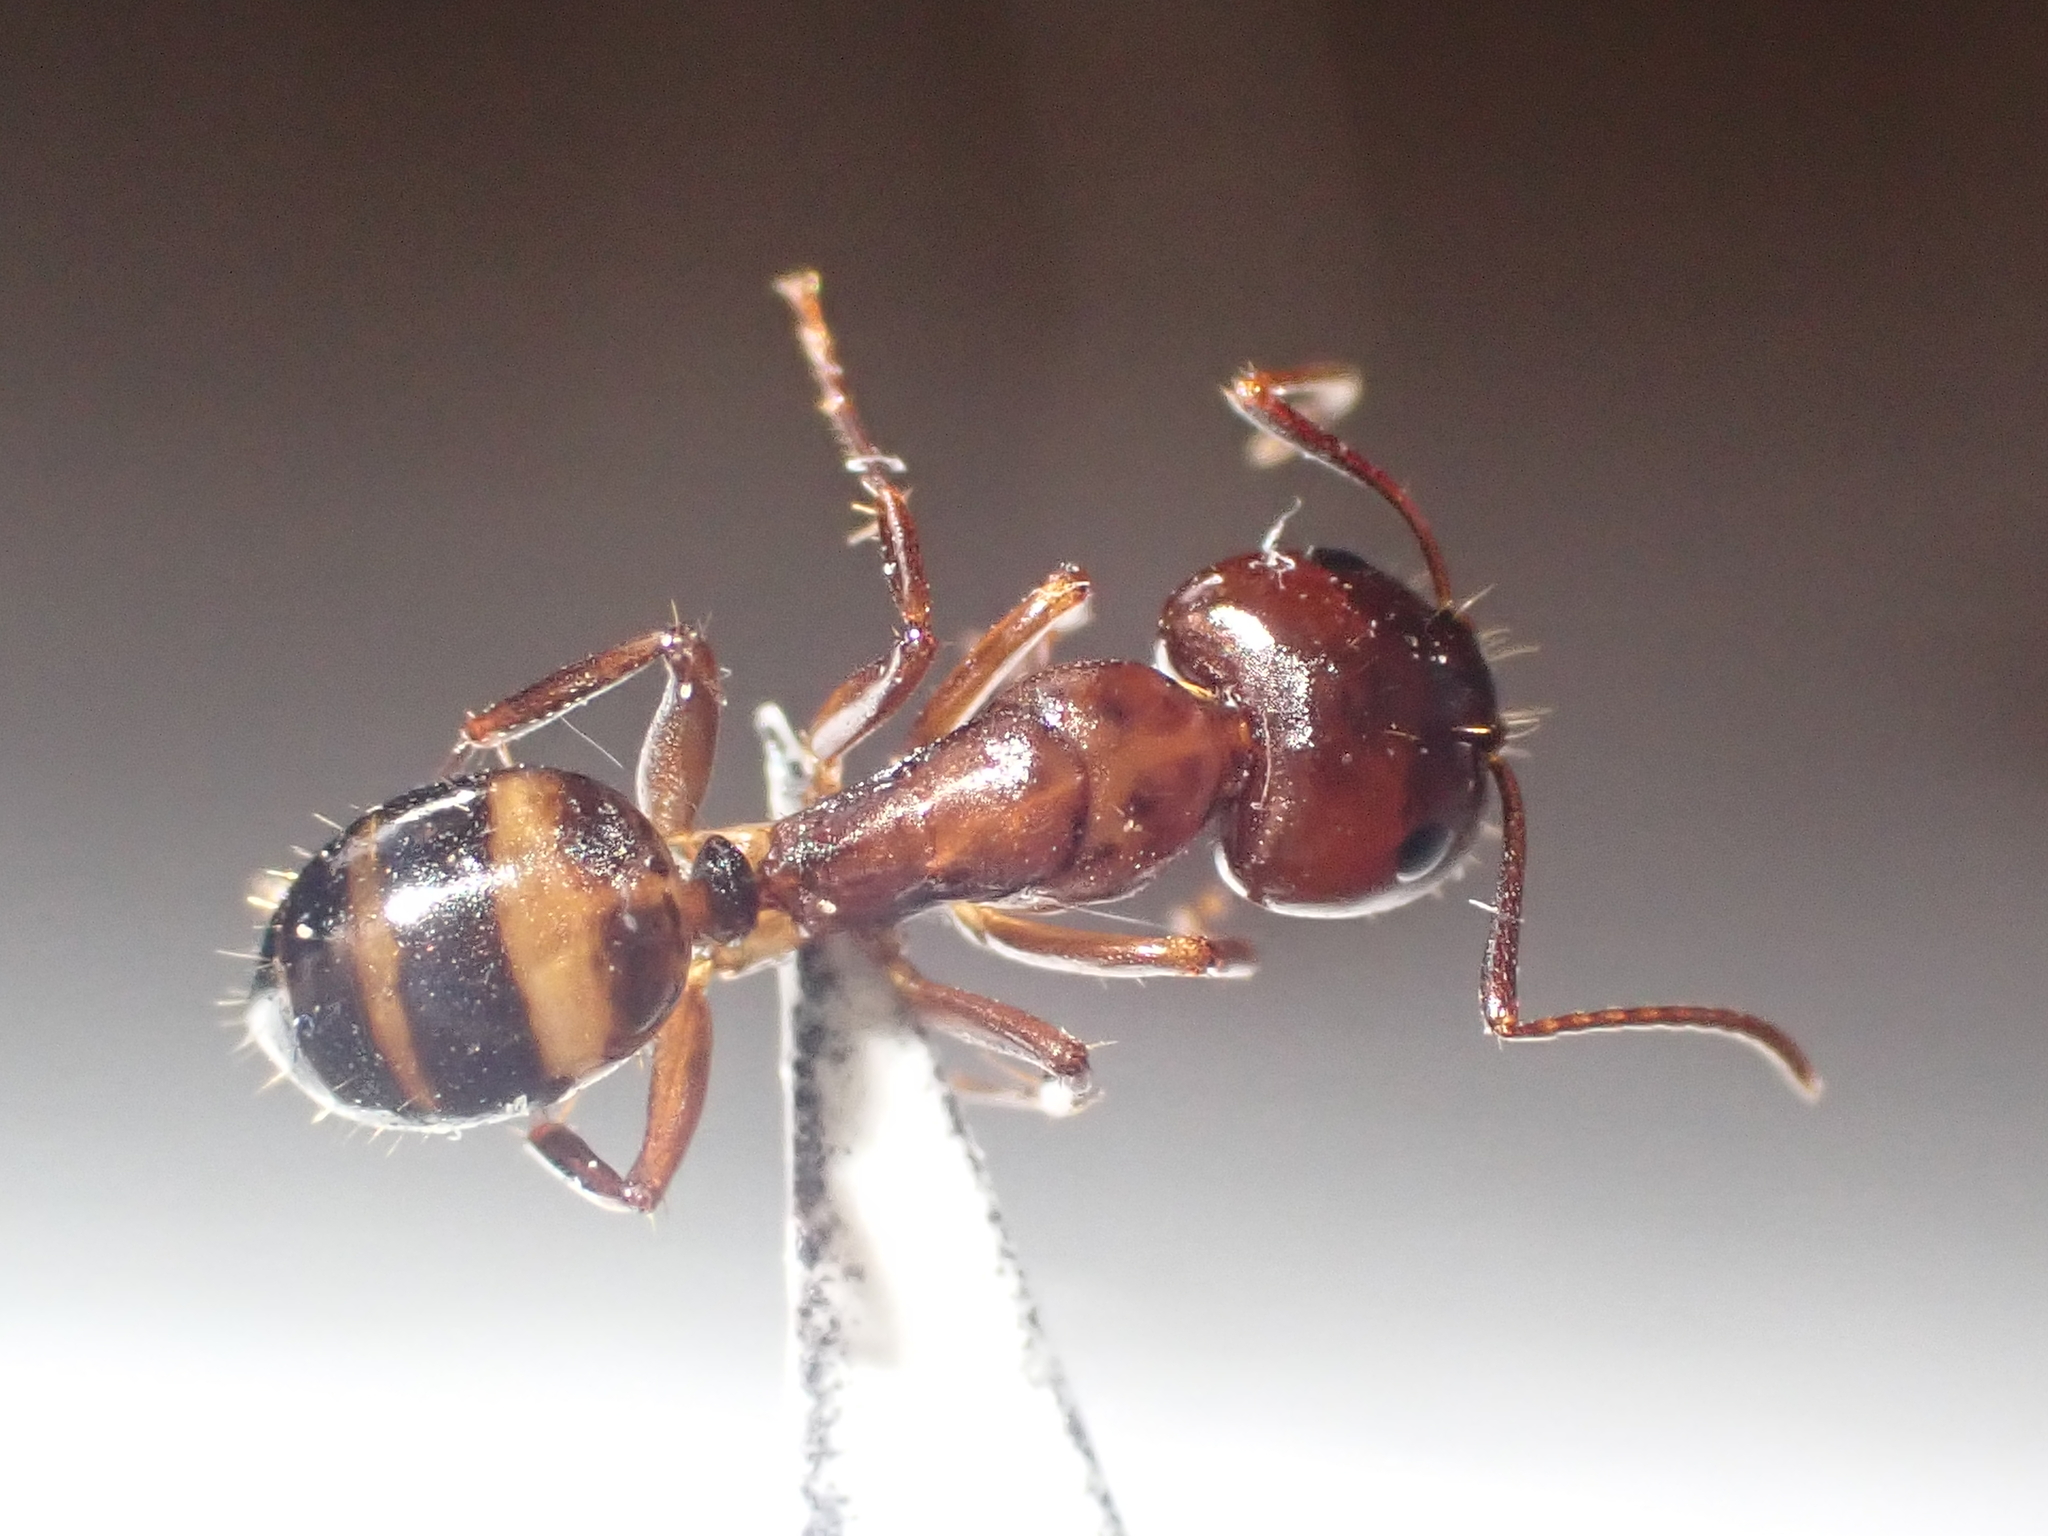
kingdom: Animalia
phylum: Arthropoda
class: Insecta
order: Hymenoptera
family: Formicidae
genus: Camponotus
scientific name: Camponotus subbarbatus
